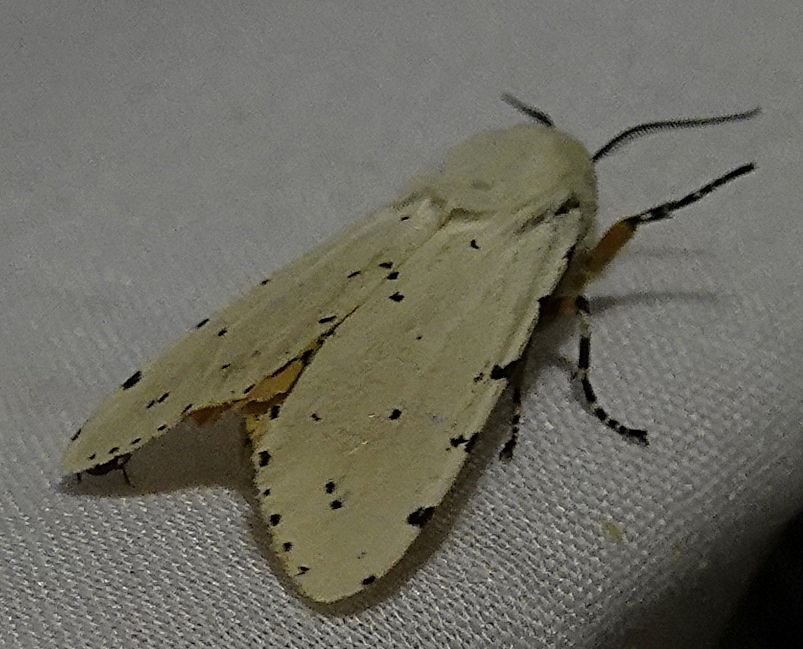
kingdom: Animalia
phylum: Arthropoda
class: Insecta
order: Lepidoptera
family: Erebidae
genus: Estigmene
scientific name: Estigmene acrea
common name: Salt marsh moth
